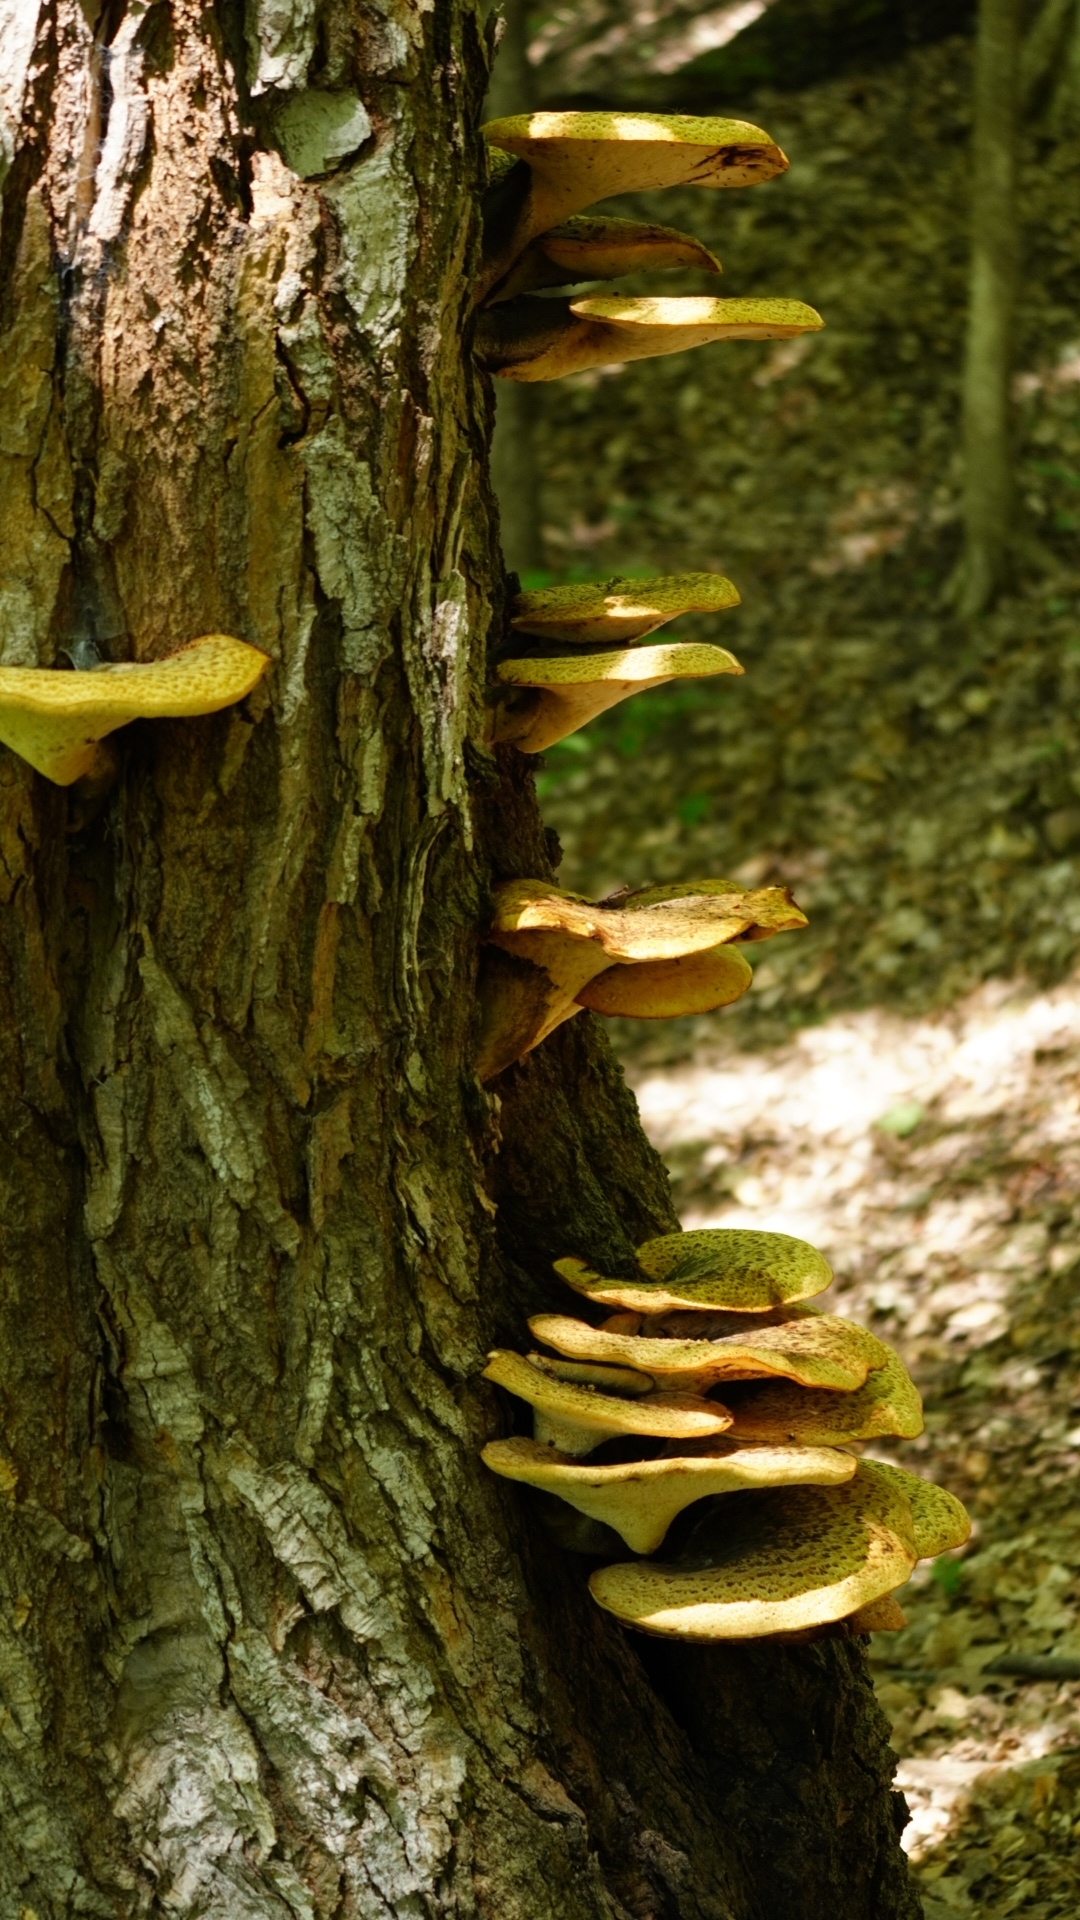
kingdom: Fungi
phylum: Basidiomycota
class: Agaricomycetes
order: Polyporales
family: Polyporaceae
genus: Cerioporus
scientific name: Cerioporus squamosus
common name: Dryad's saddle
